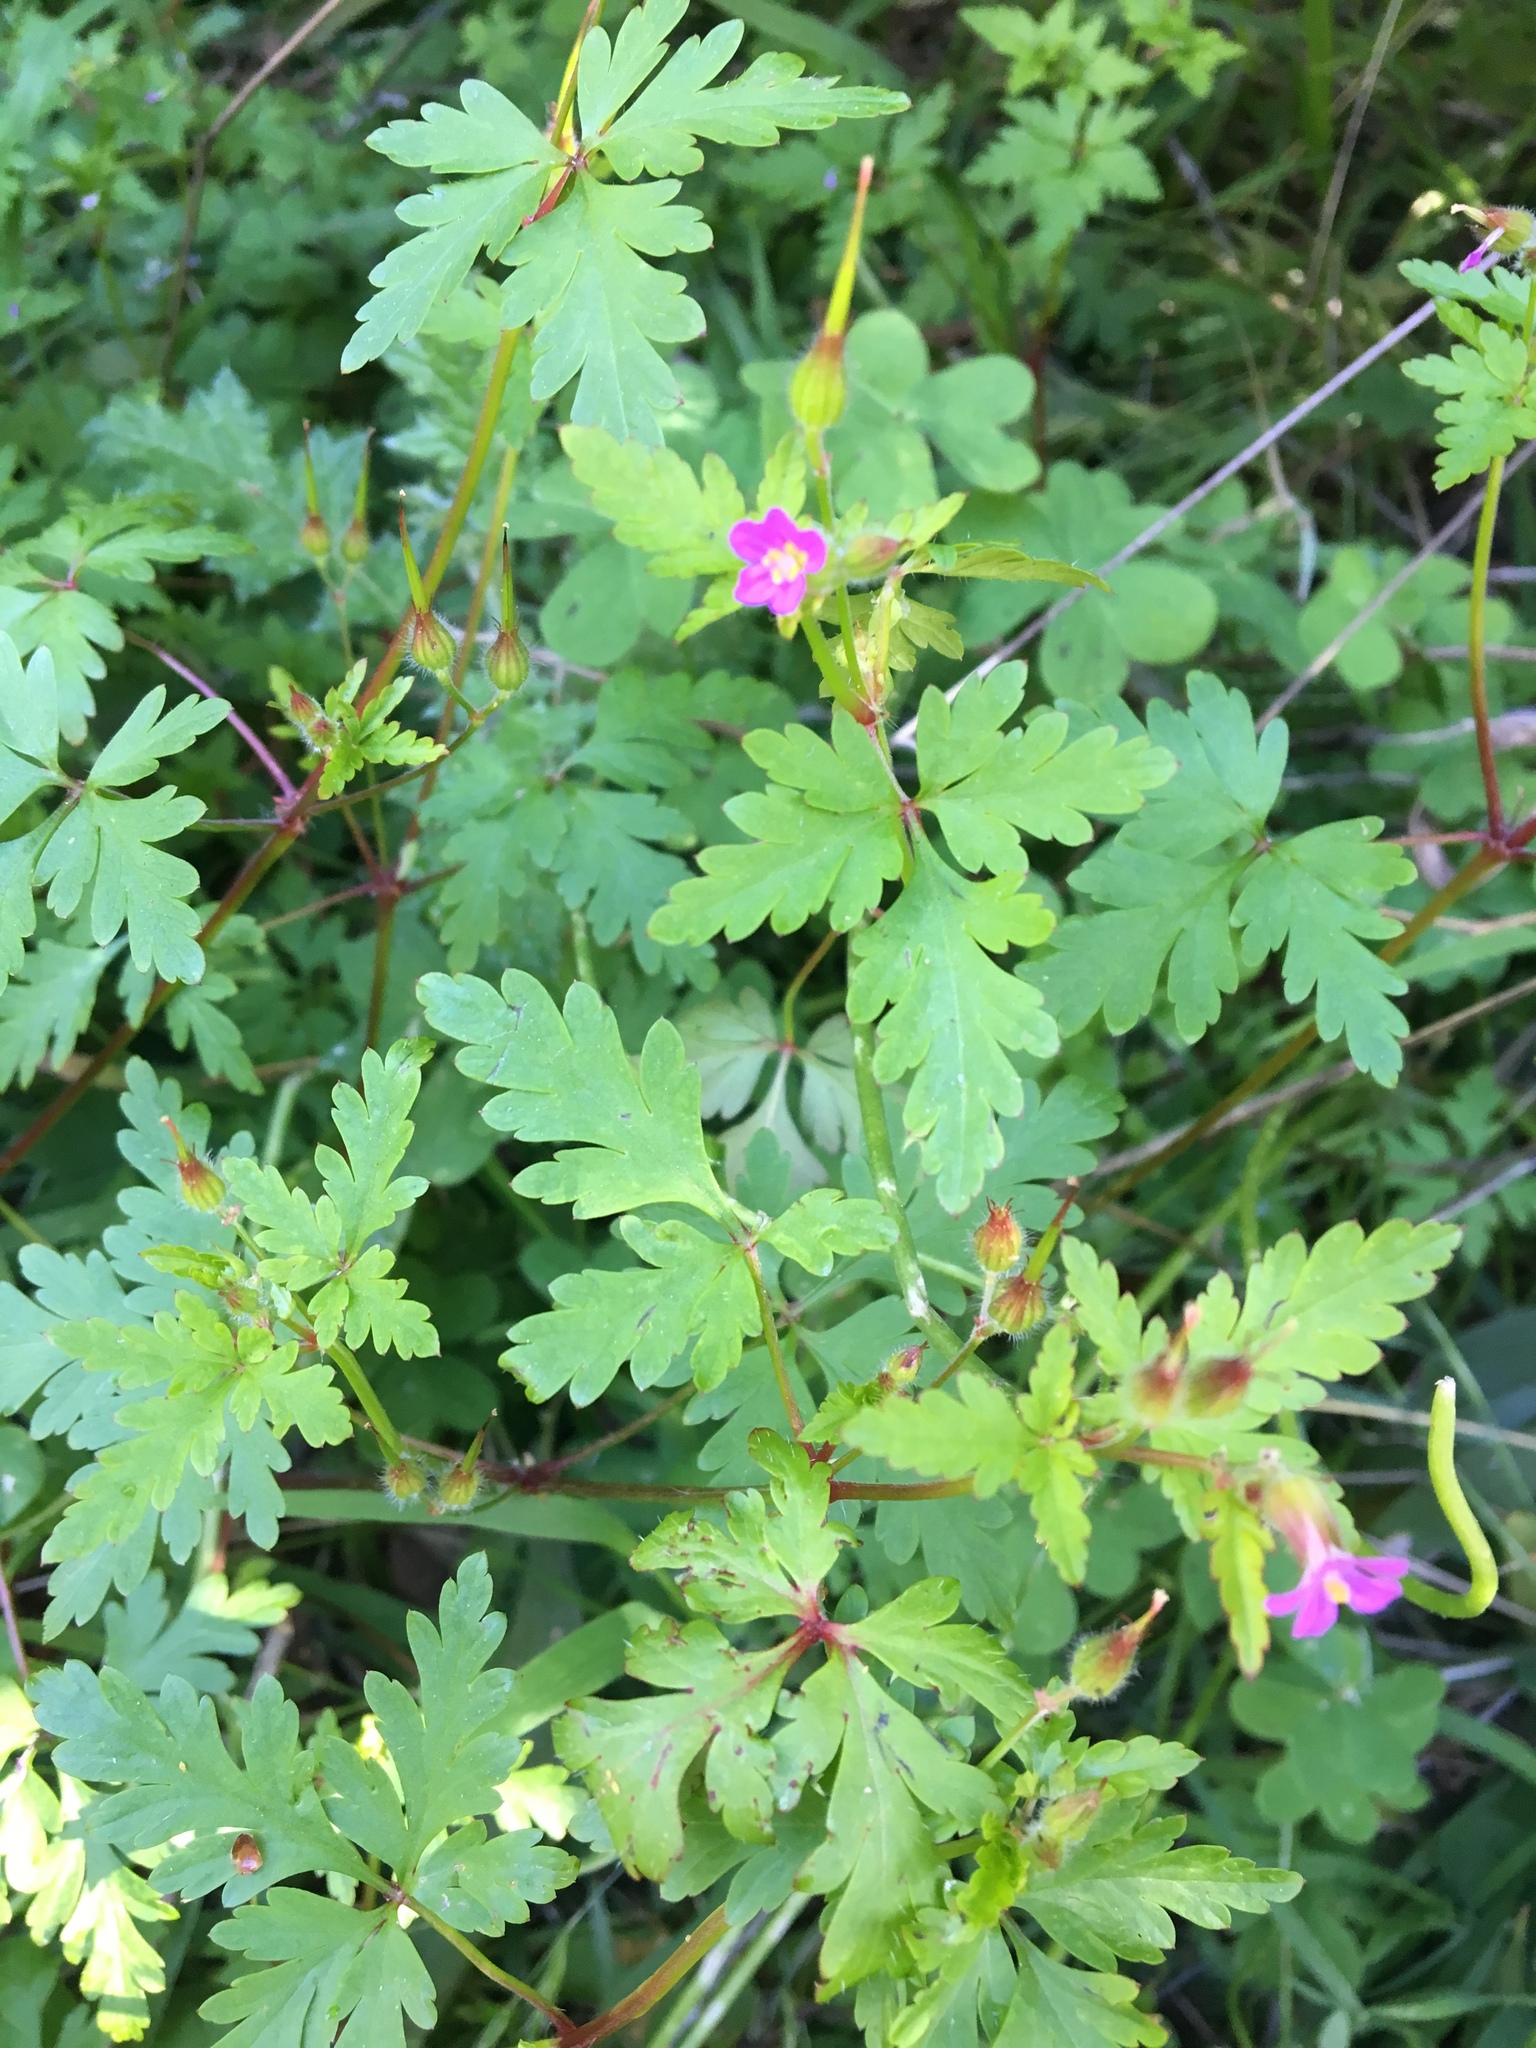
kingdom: Plantae
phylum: Tracheophyta
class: Magnoliopsida
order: Geraniales
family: Geraniaceae
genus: Geranium
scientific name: Geranium purpureum
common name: Little-robin
